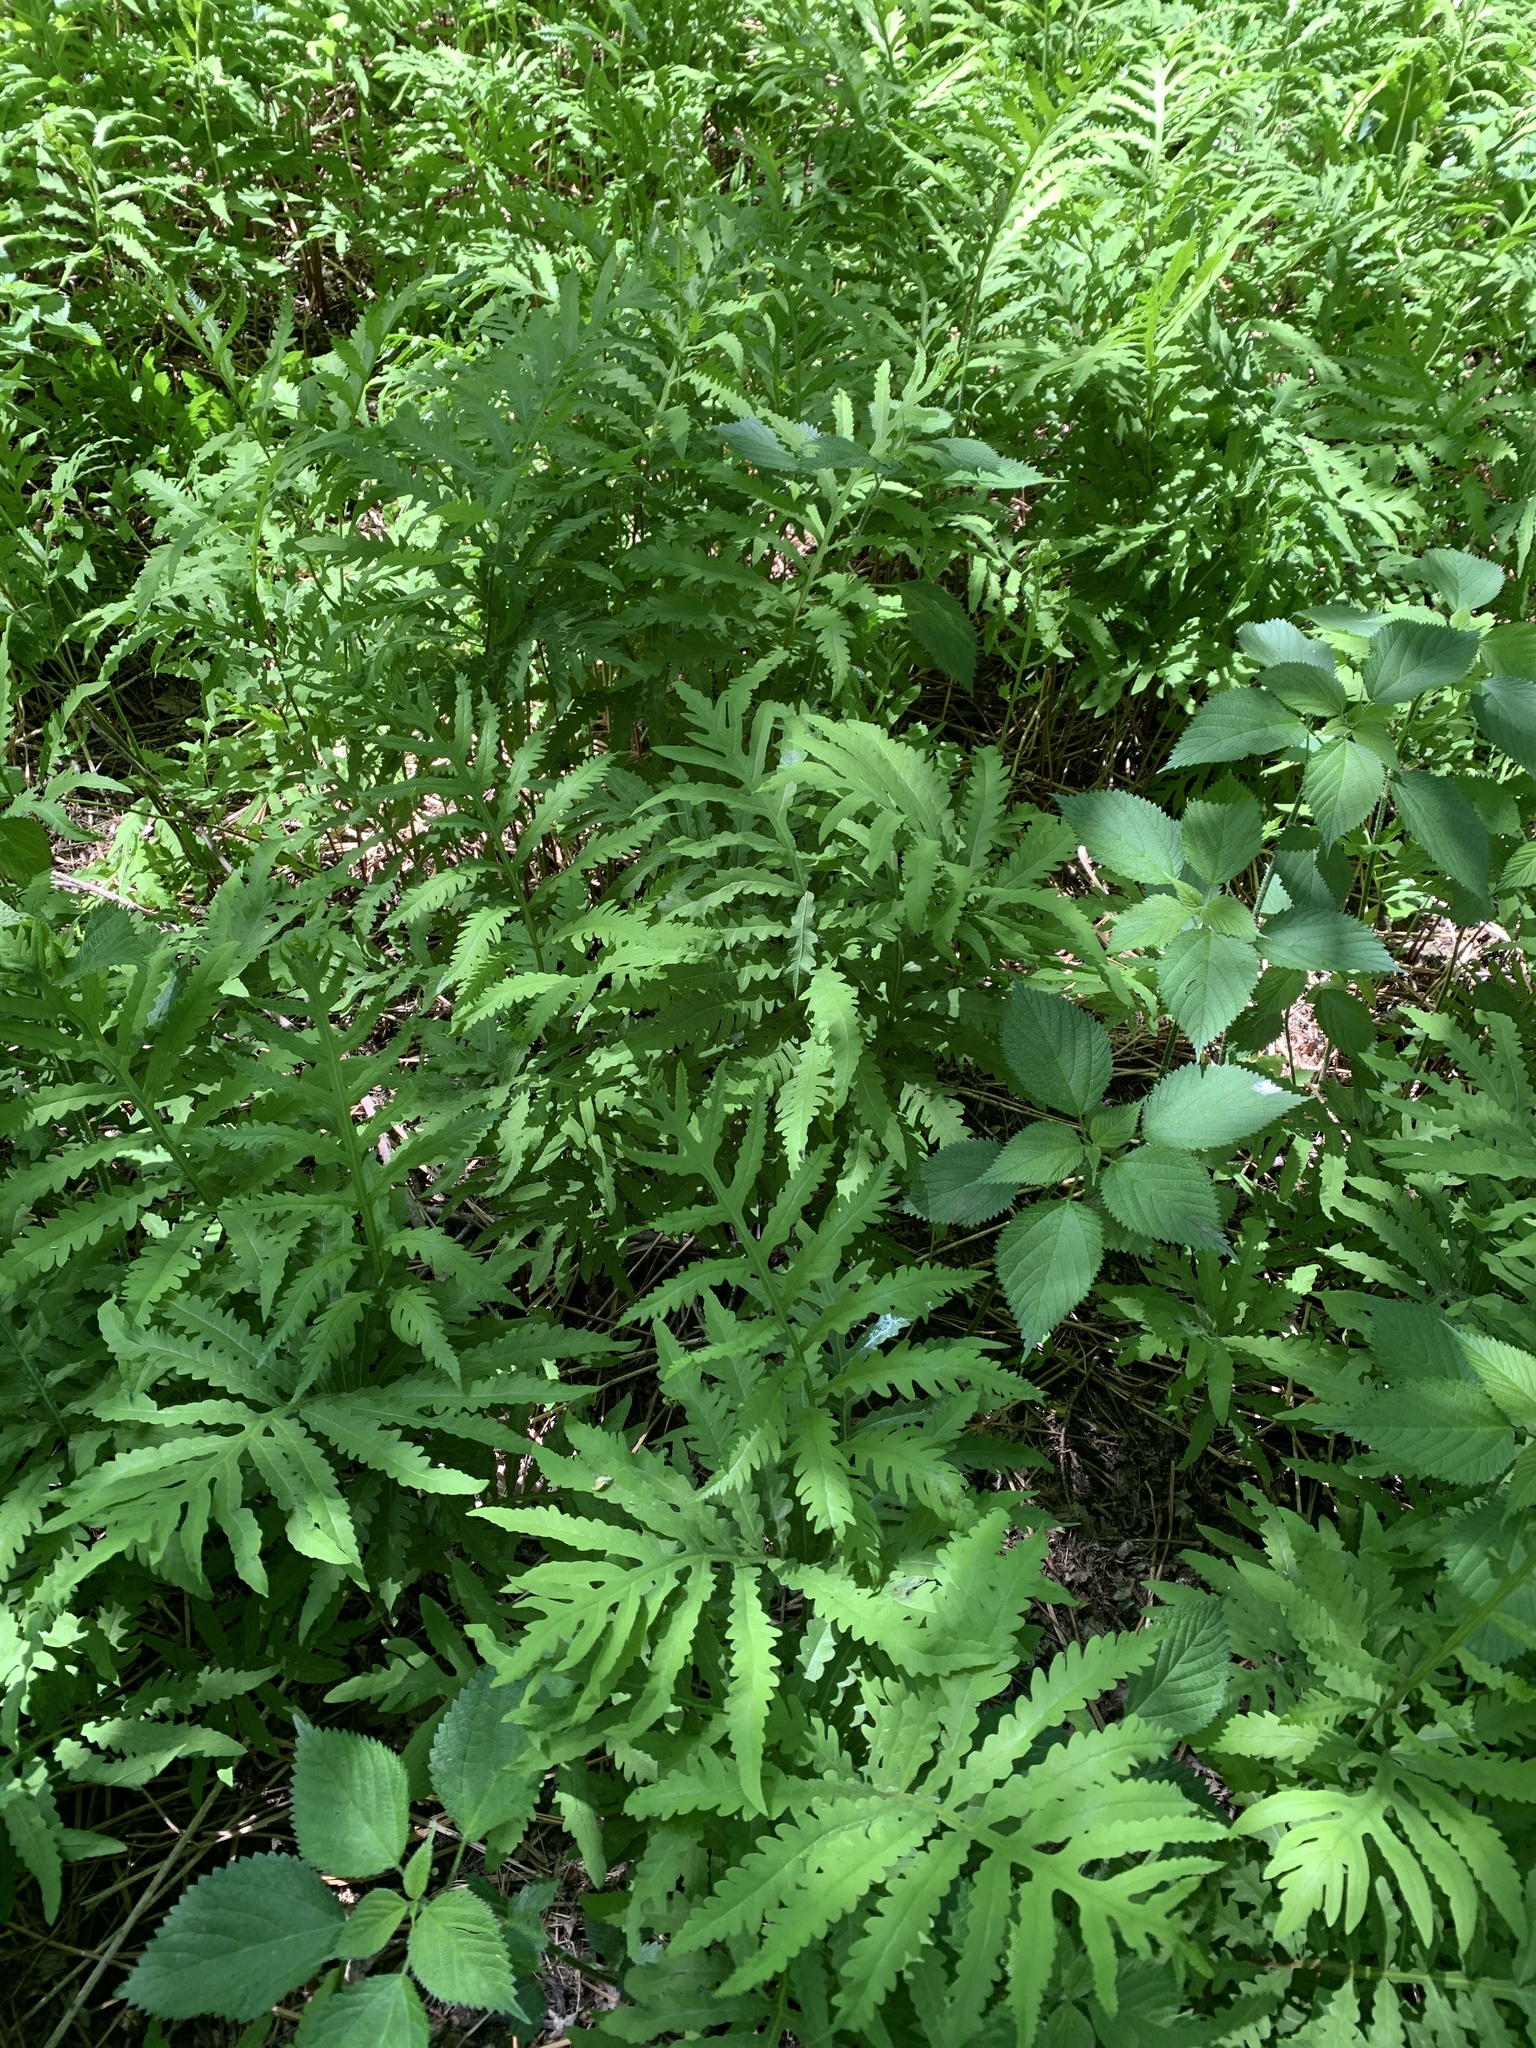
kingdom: Plantae
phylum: Tracheophyta
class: Polypodiopsida
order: Polypodiales
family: Onocleaceae
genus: Onoclea
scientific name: Onoclea sensibilis
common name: Sensitive fern
